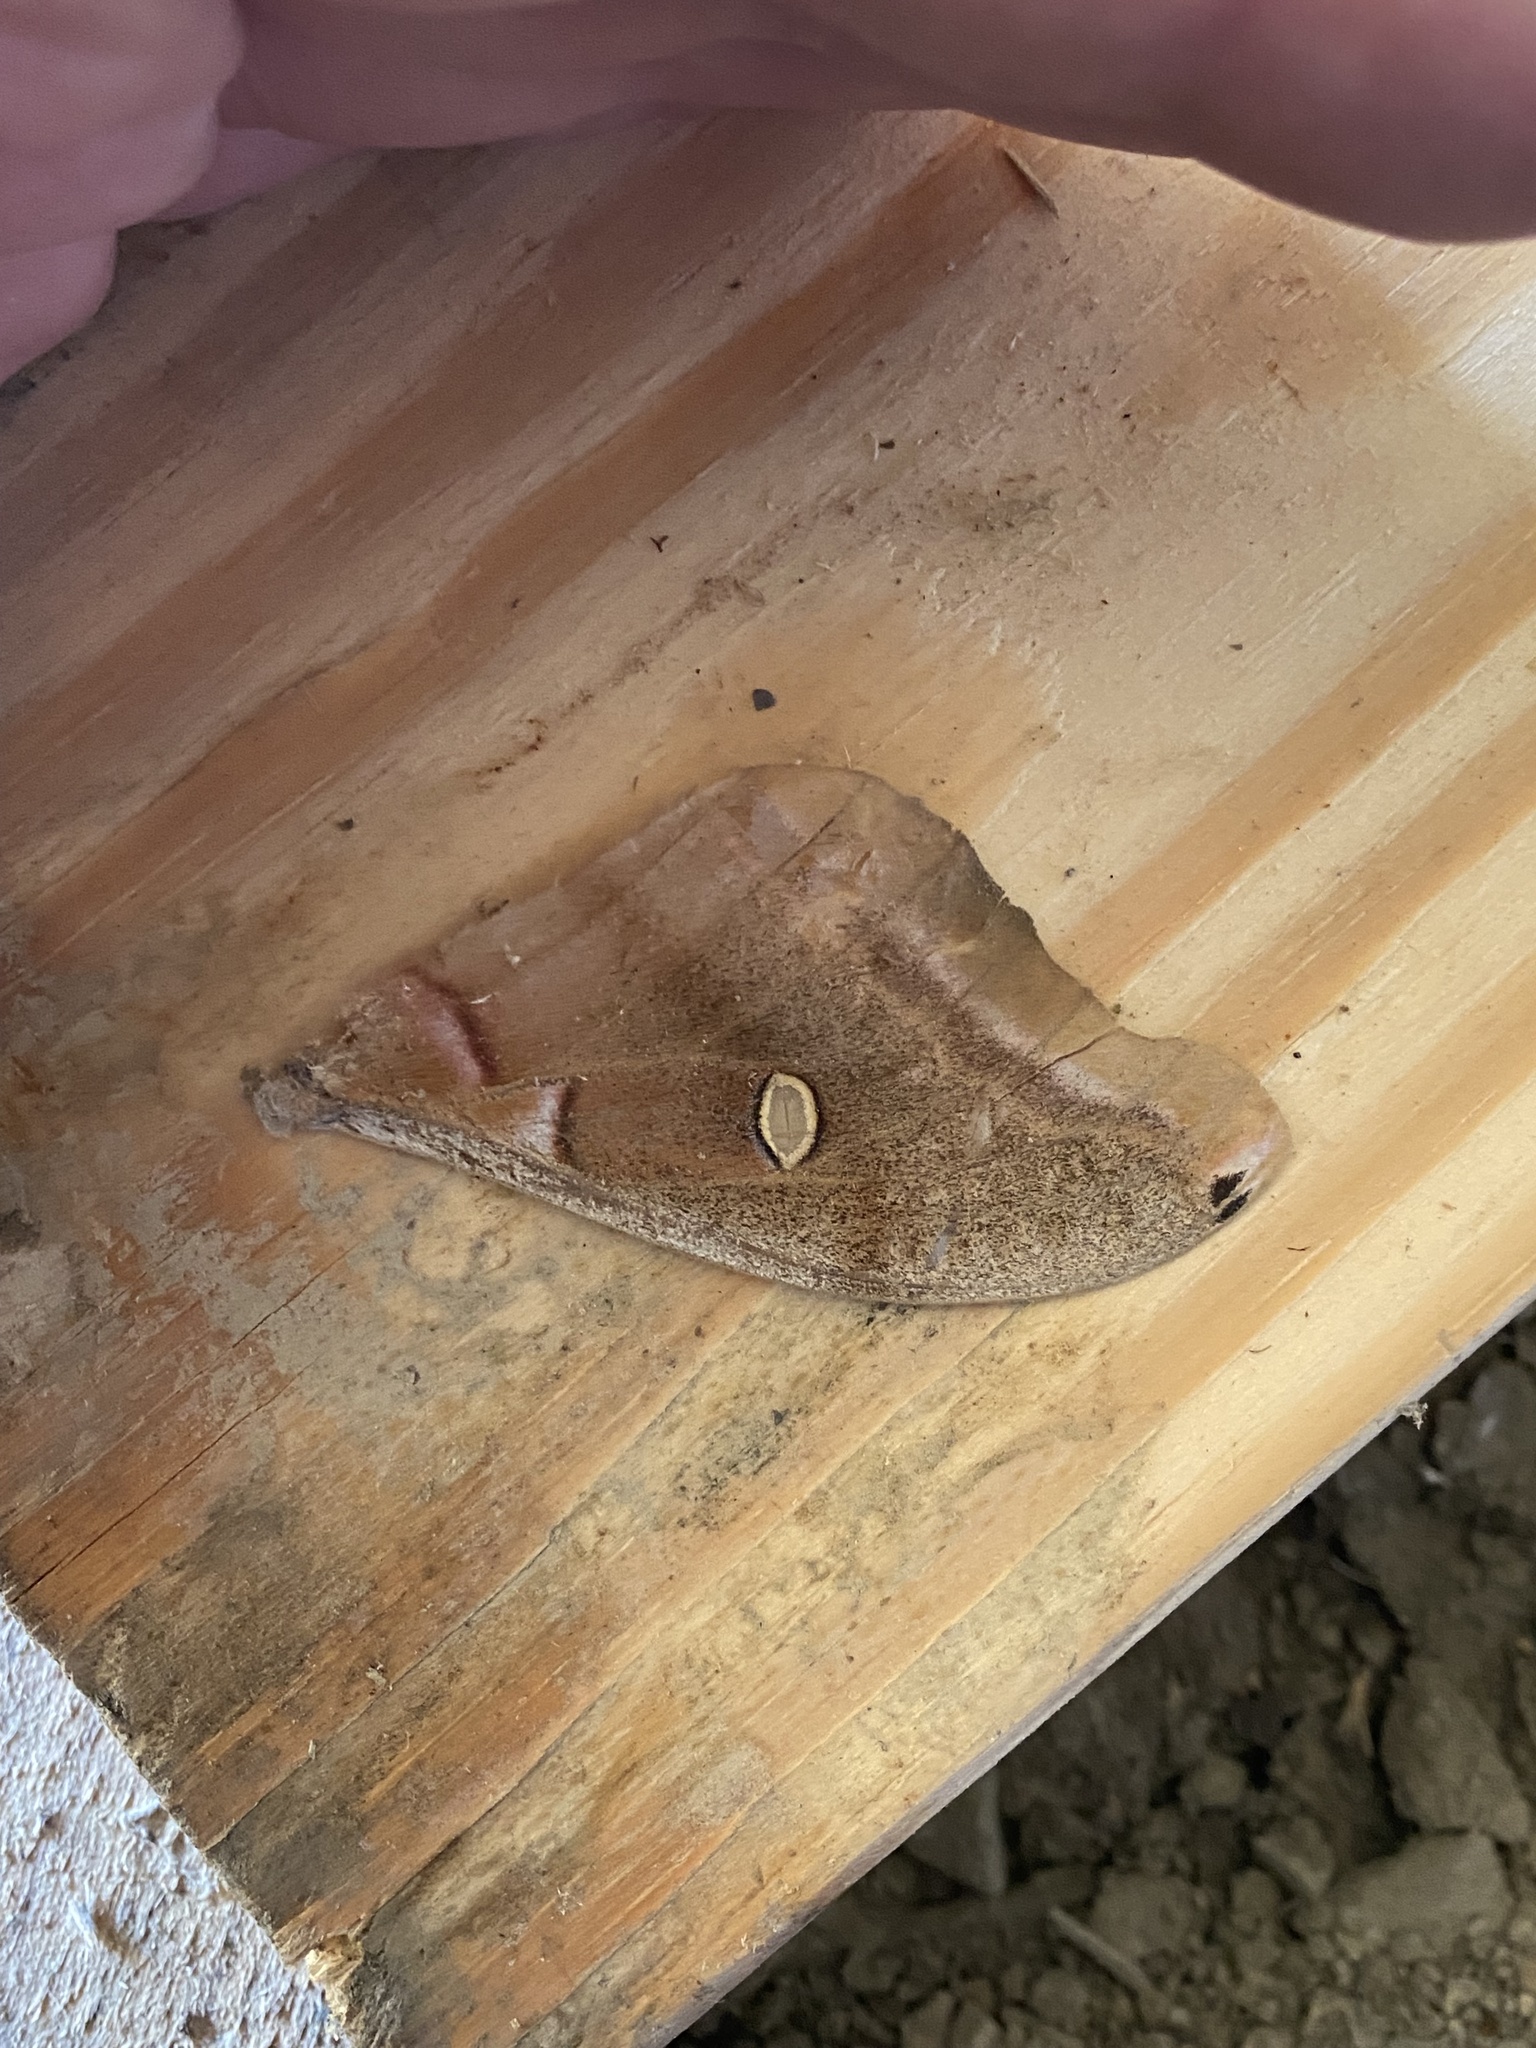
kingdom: Animalia
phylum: Arthropoda
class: Insecta
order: Lepidoptera
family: Saturniidae
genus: Antheraea
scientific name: Antheraea polyphemus
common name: Polyphemus moth
